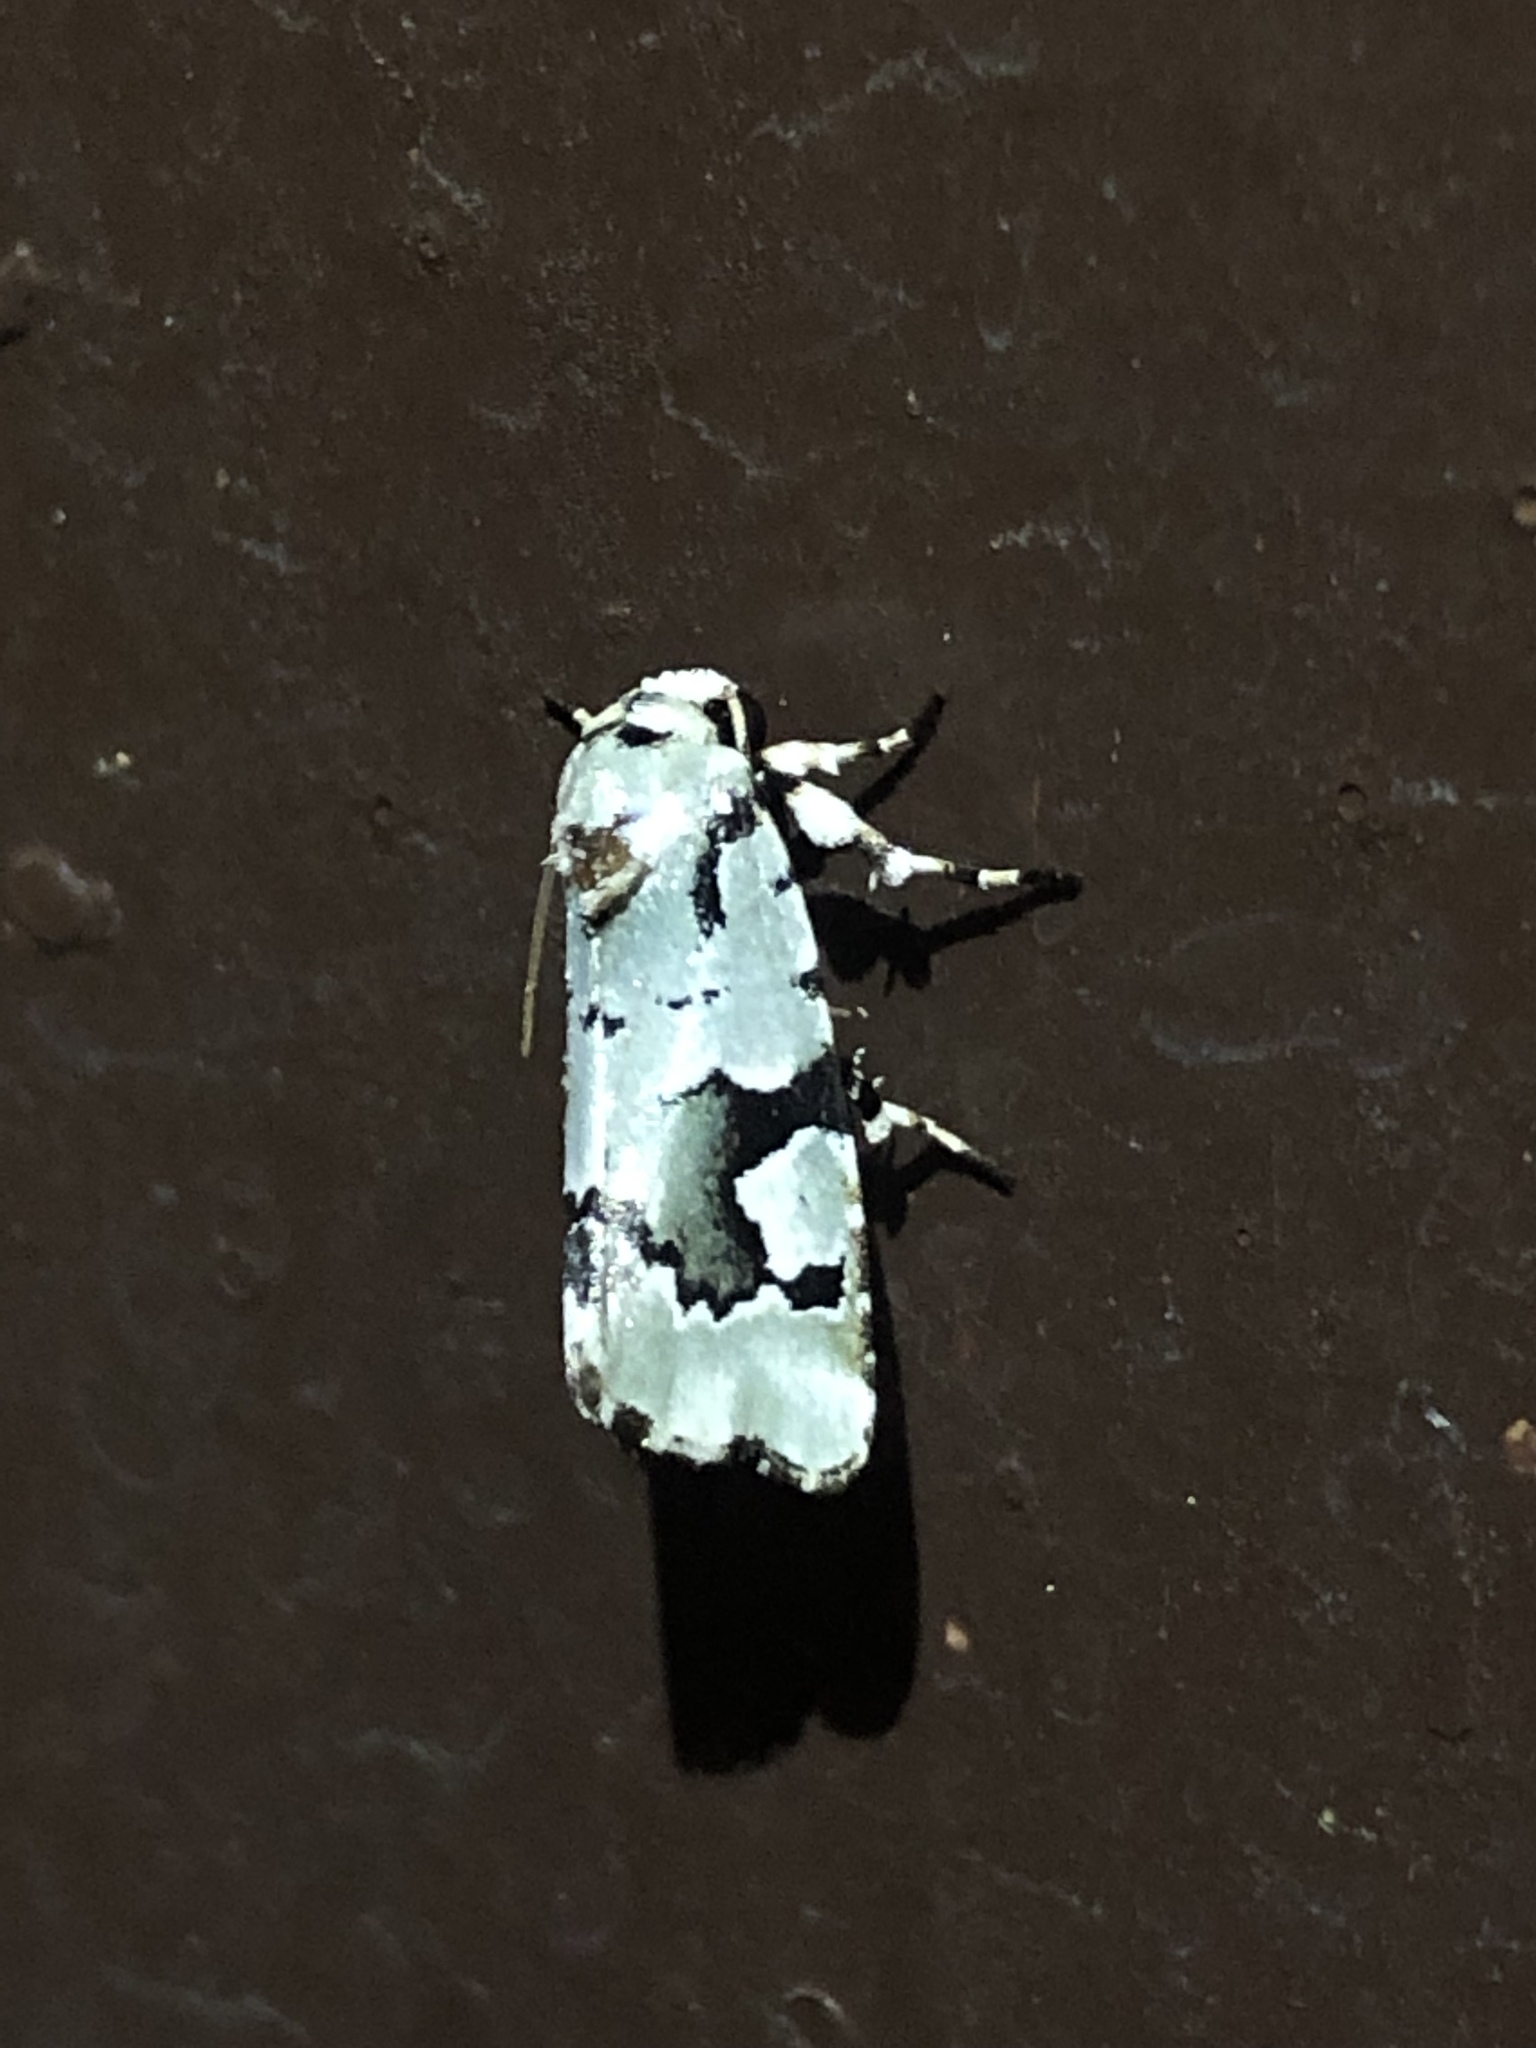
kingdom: Animalia
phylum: Arthropoda
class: Insecta
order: Lepidoptera
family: Noctuidae
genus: Emarginea
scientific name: Emarginea percara
